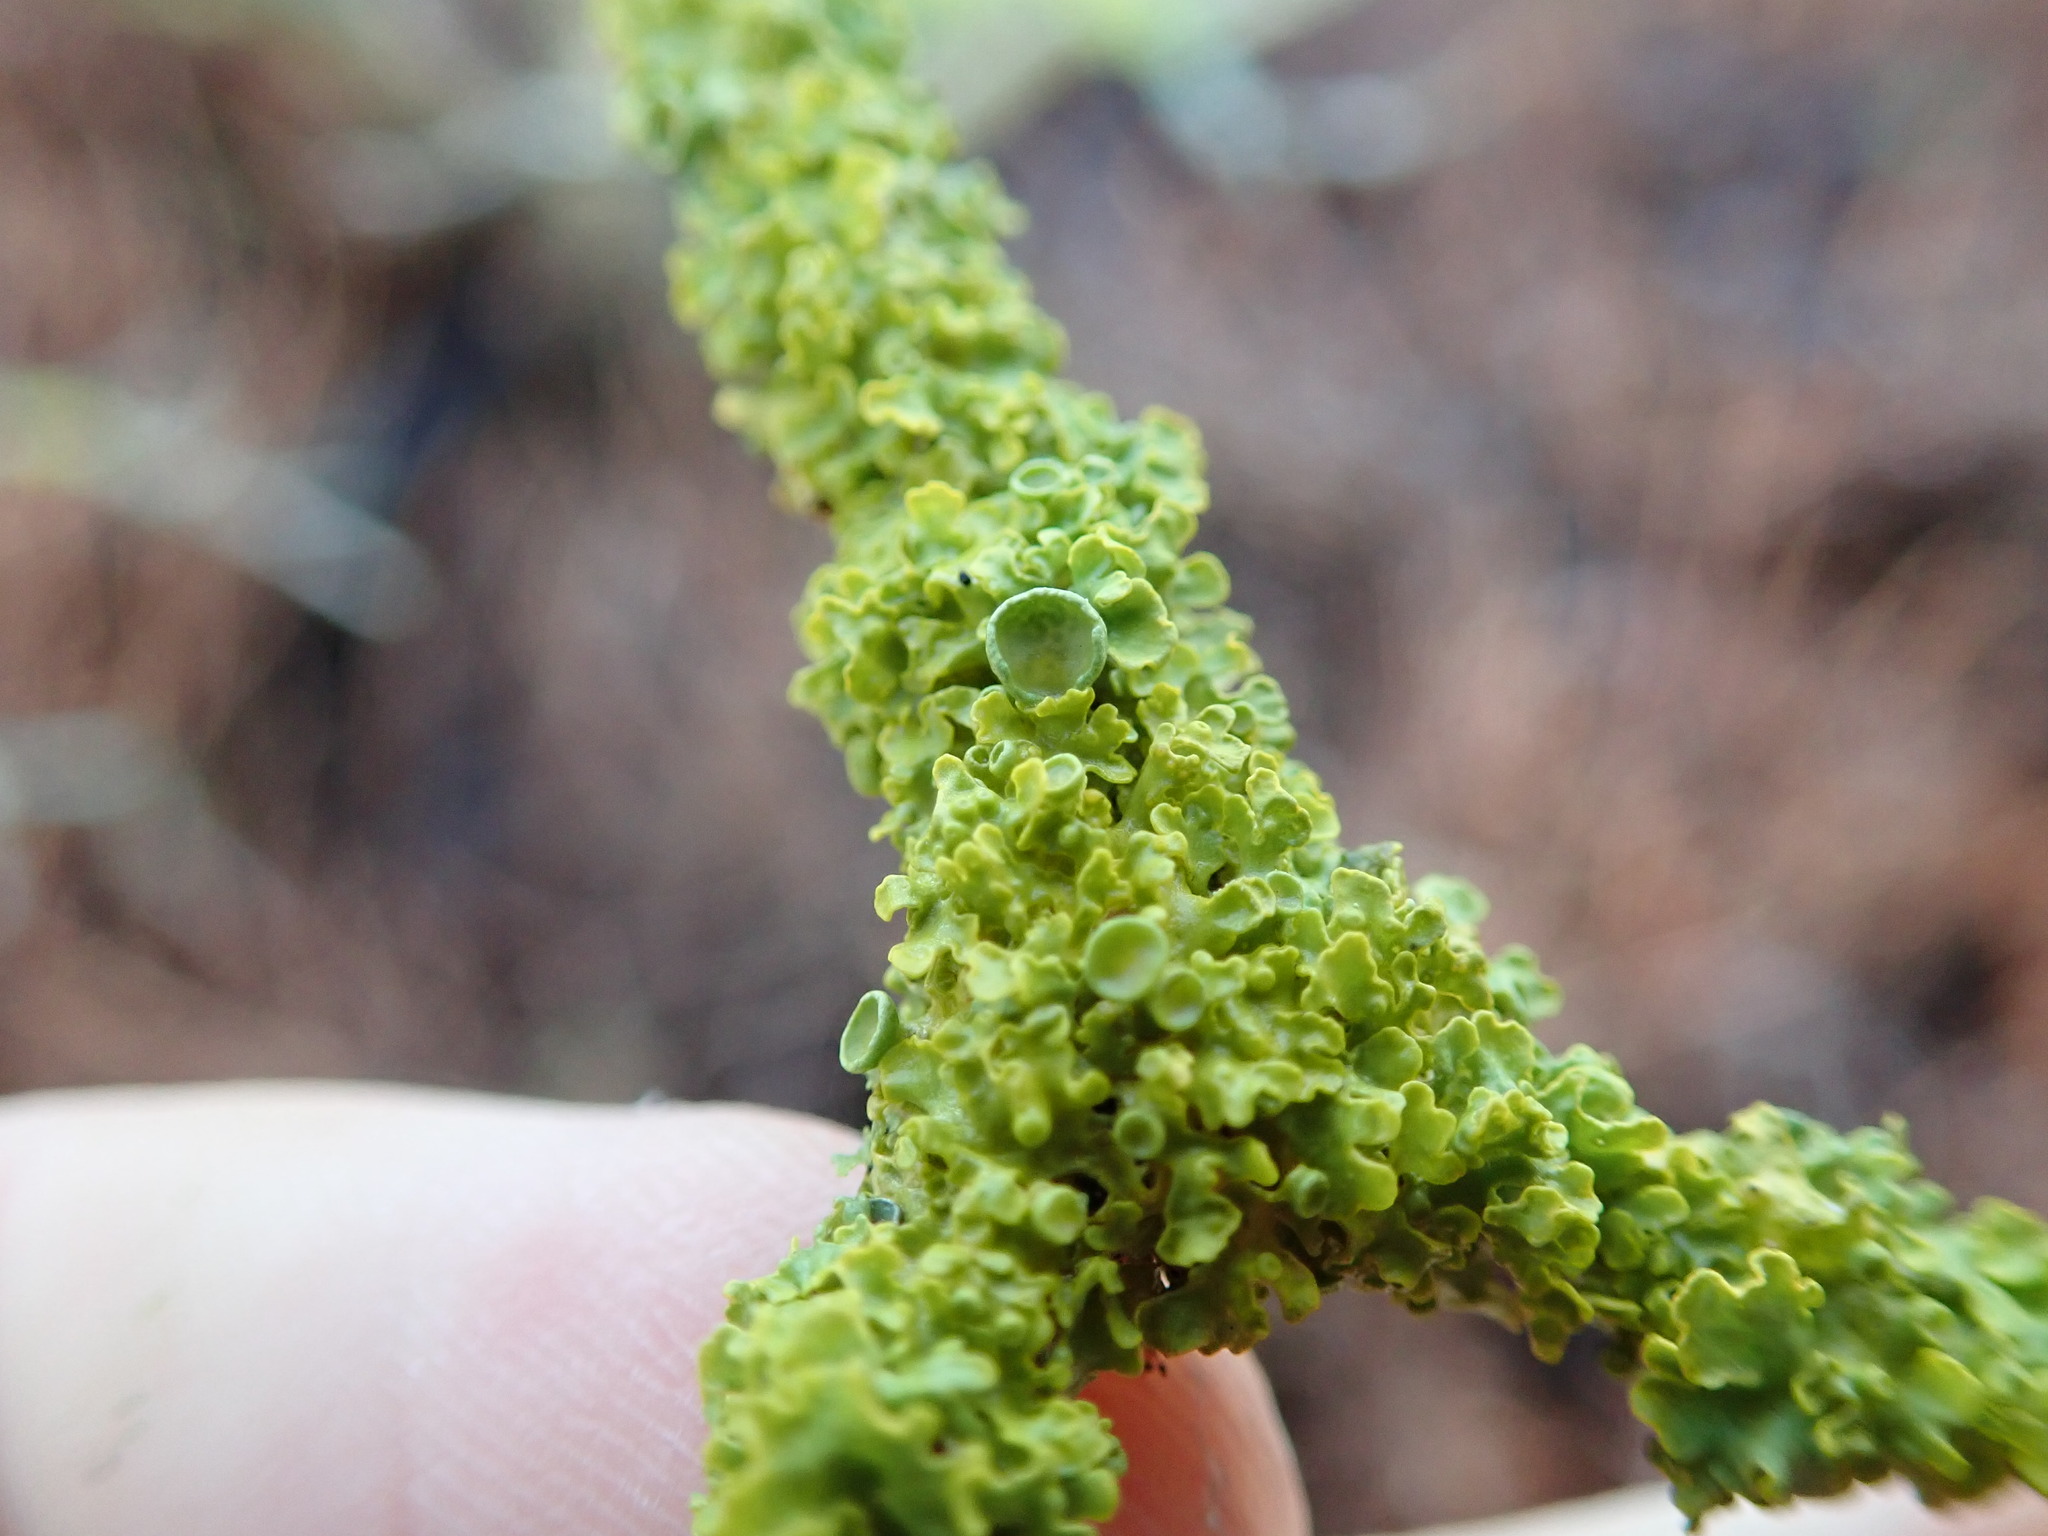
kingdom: Fungi
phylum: Ascomycota
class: Lecanoromycetes
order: Teloschistales
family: Teloschistaceae
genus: Polycauliona
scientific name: Polycauliona polycarpa
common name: Pin-cushion sunburst lichen
